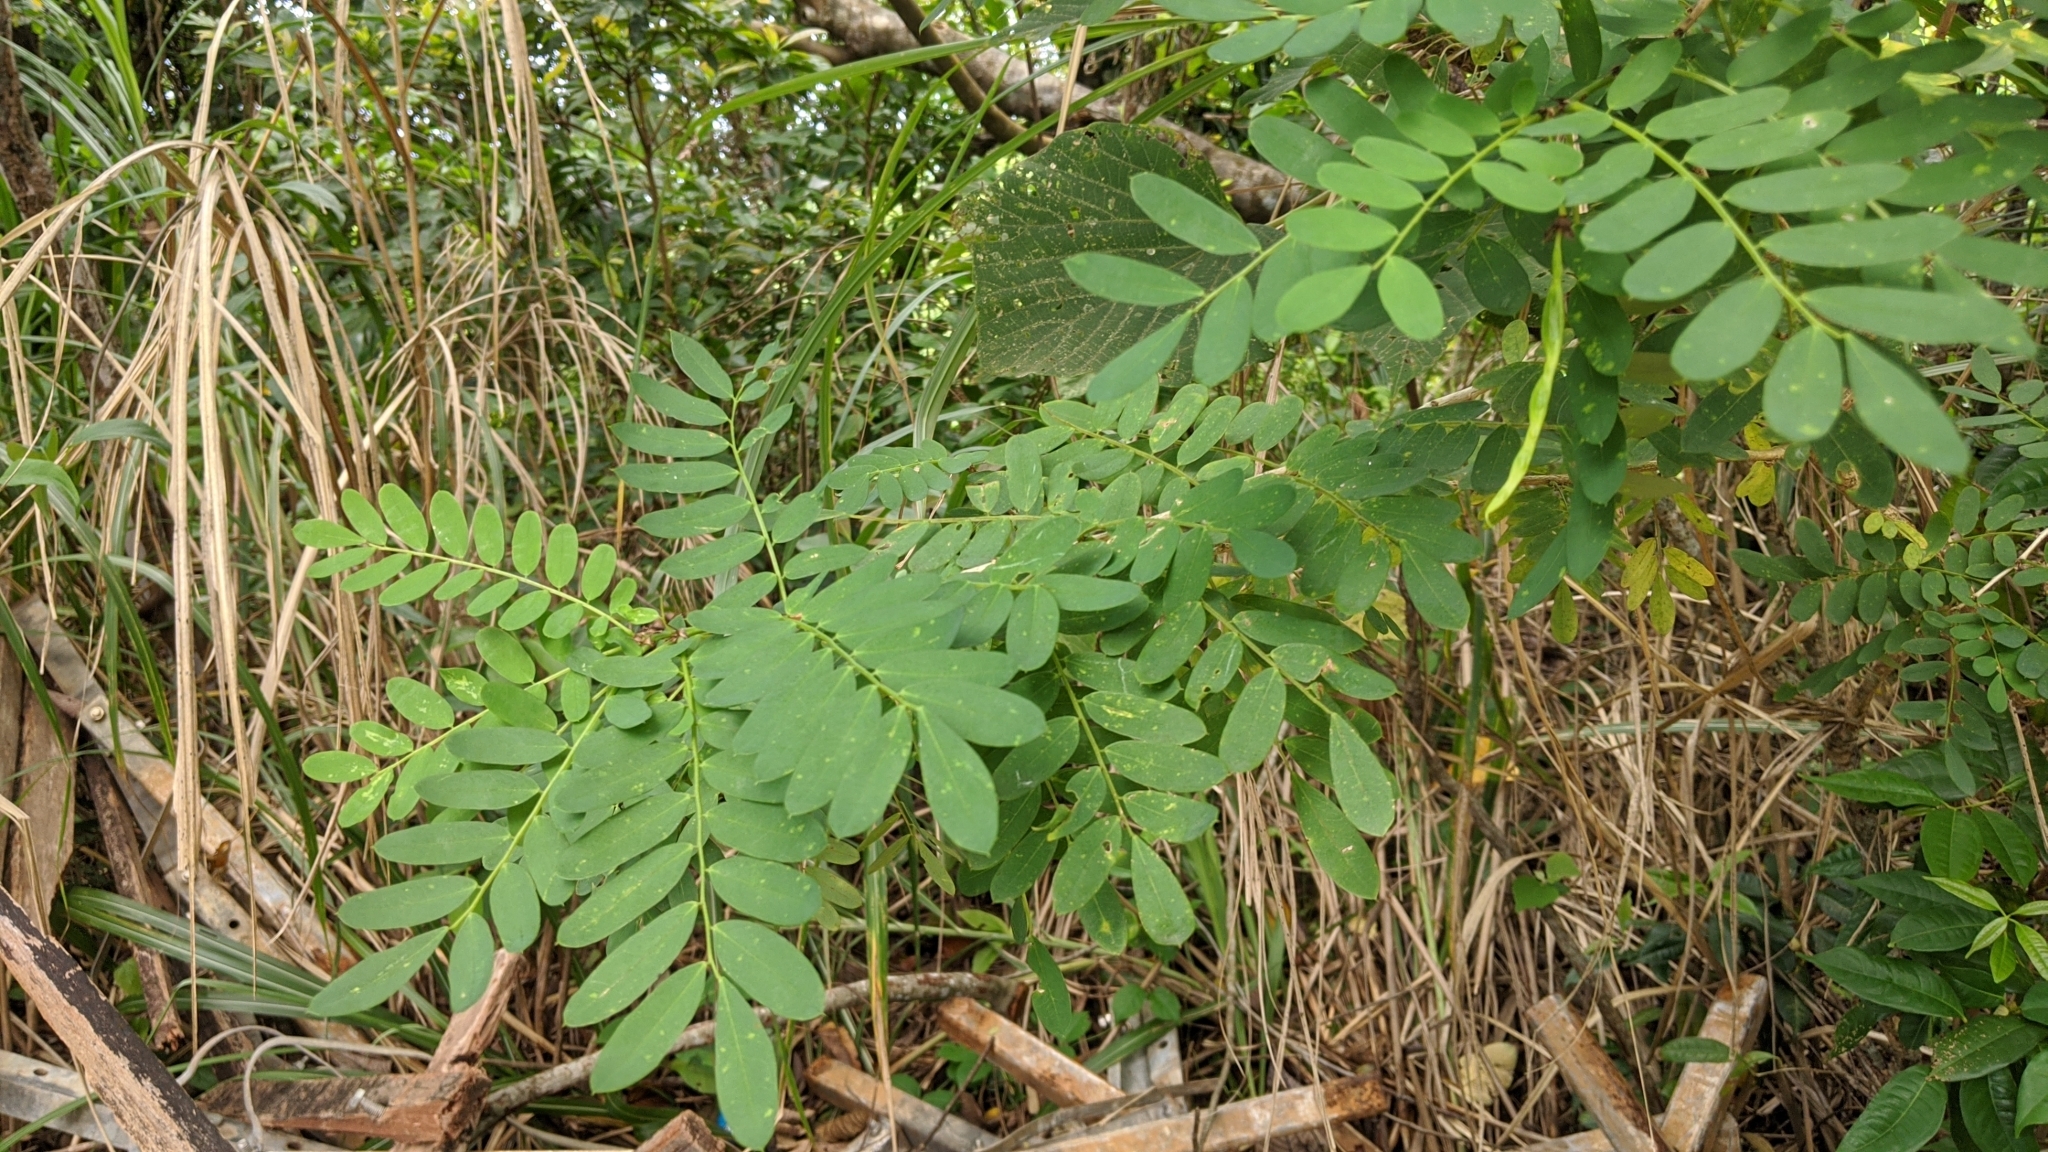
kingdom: Plantae
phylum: Tracheophyta
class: Magnoliopsida
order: Fabales
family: Fabaceae
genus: Ormocarpum
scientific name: Ormocarpum cochinchinense
